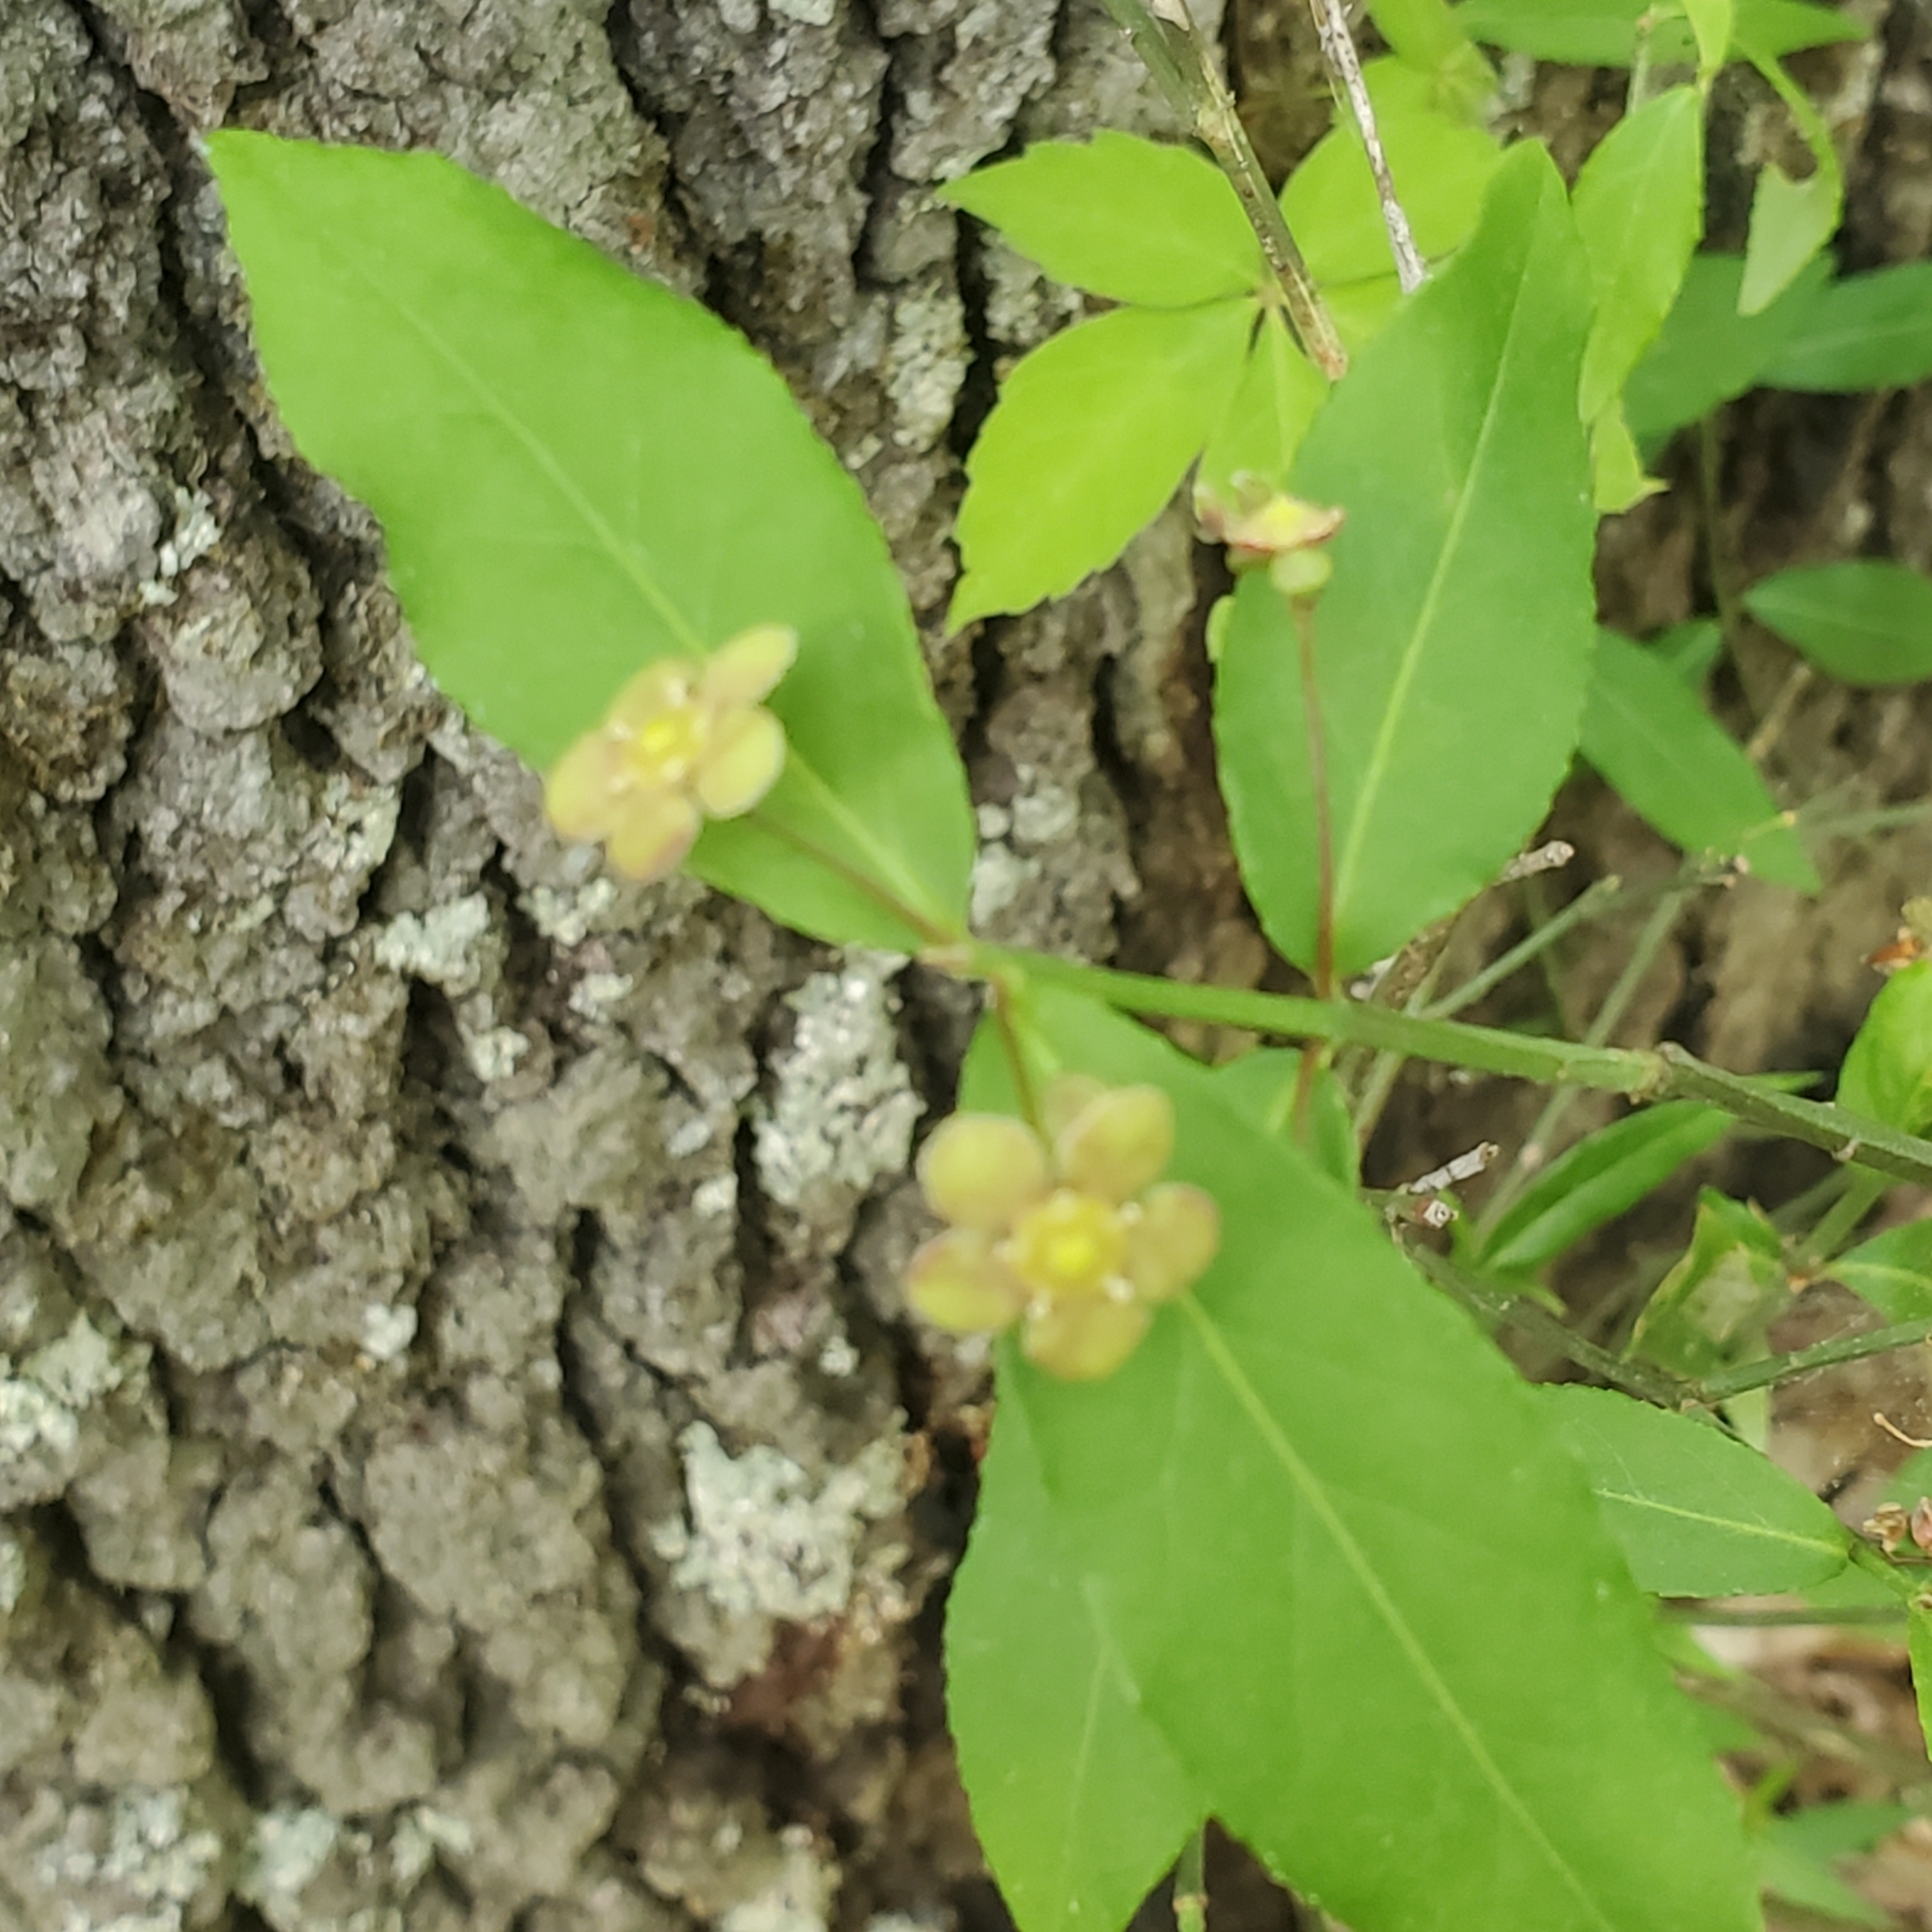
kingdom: Plantae
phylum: Tracheophyta
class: Magnoliopsida
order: Celastrales
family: Celastraceae
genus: Euonymus
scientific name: Euonymus americanus
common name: Bursting-heart
